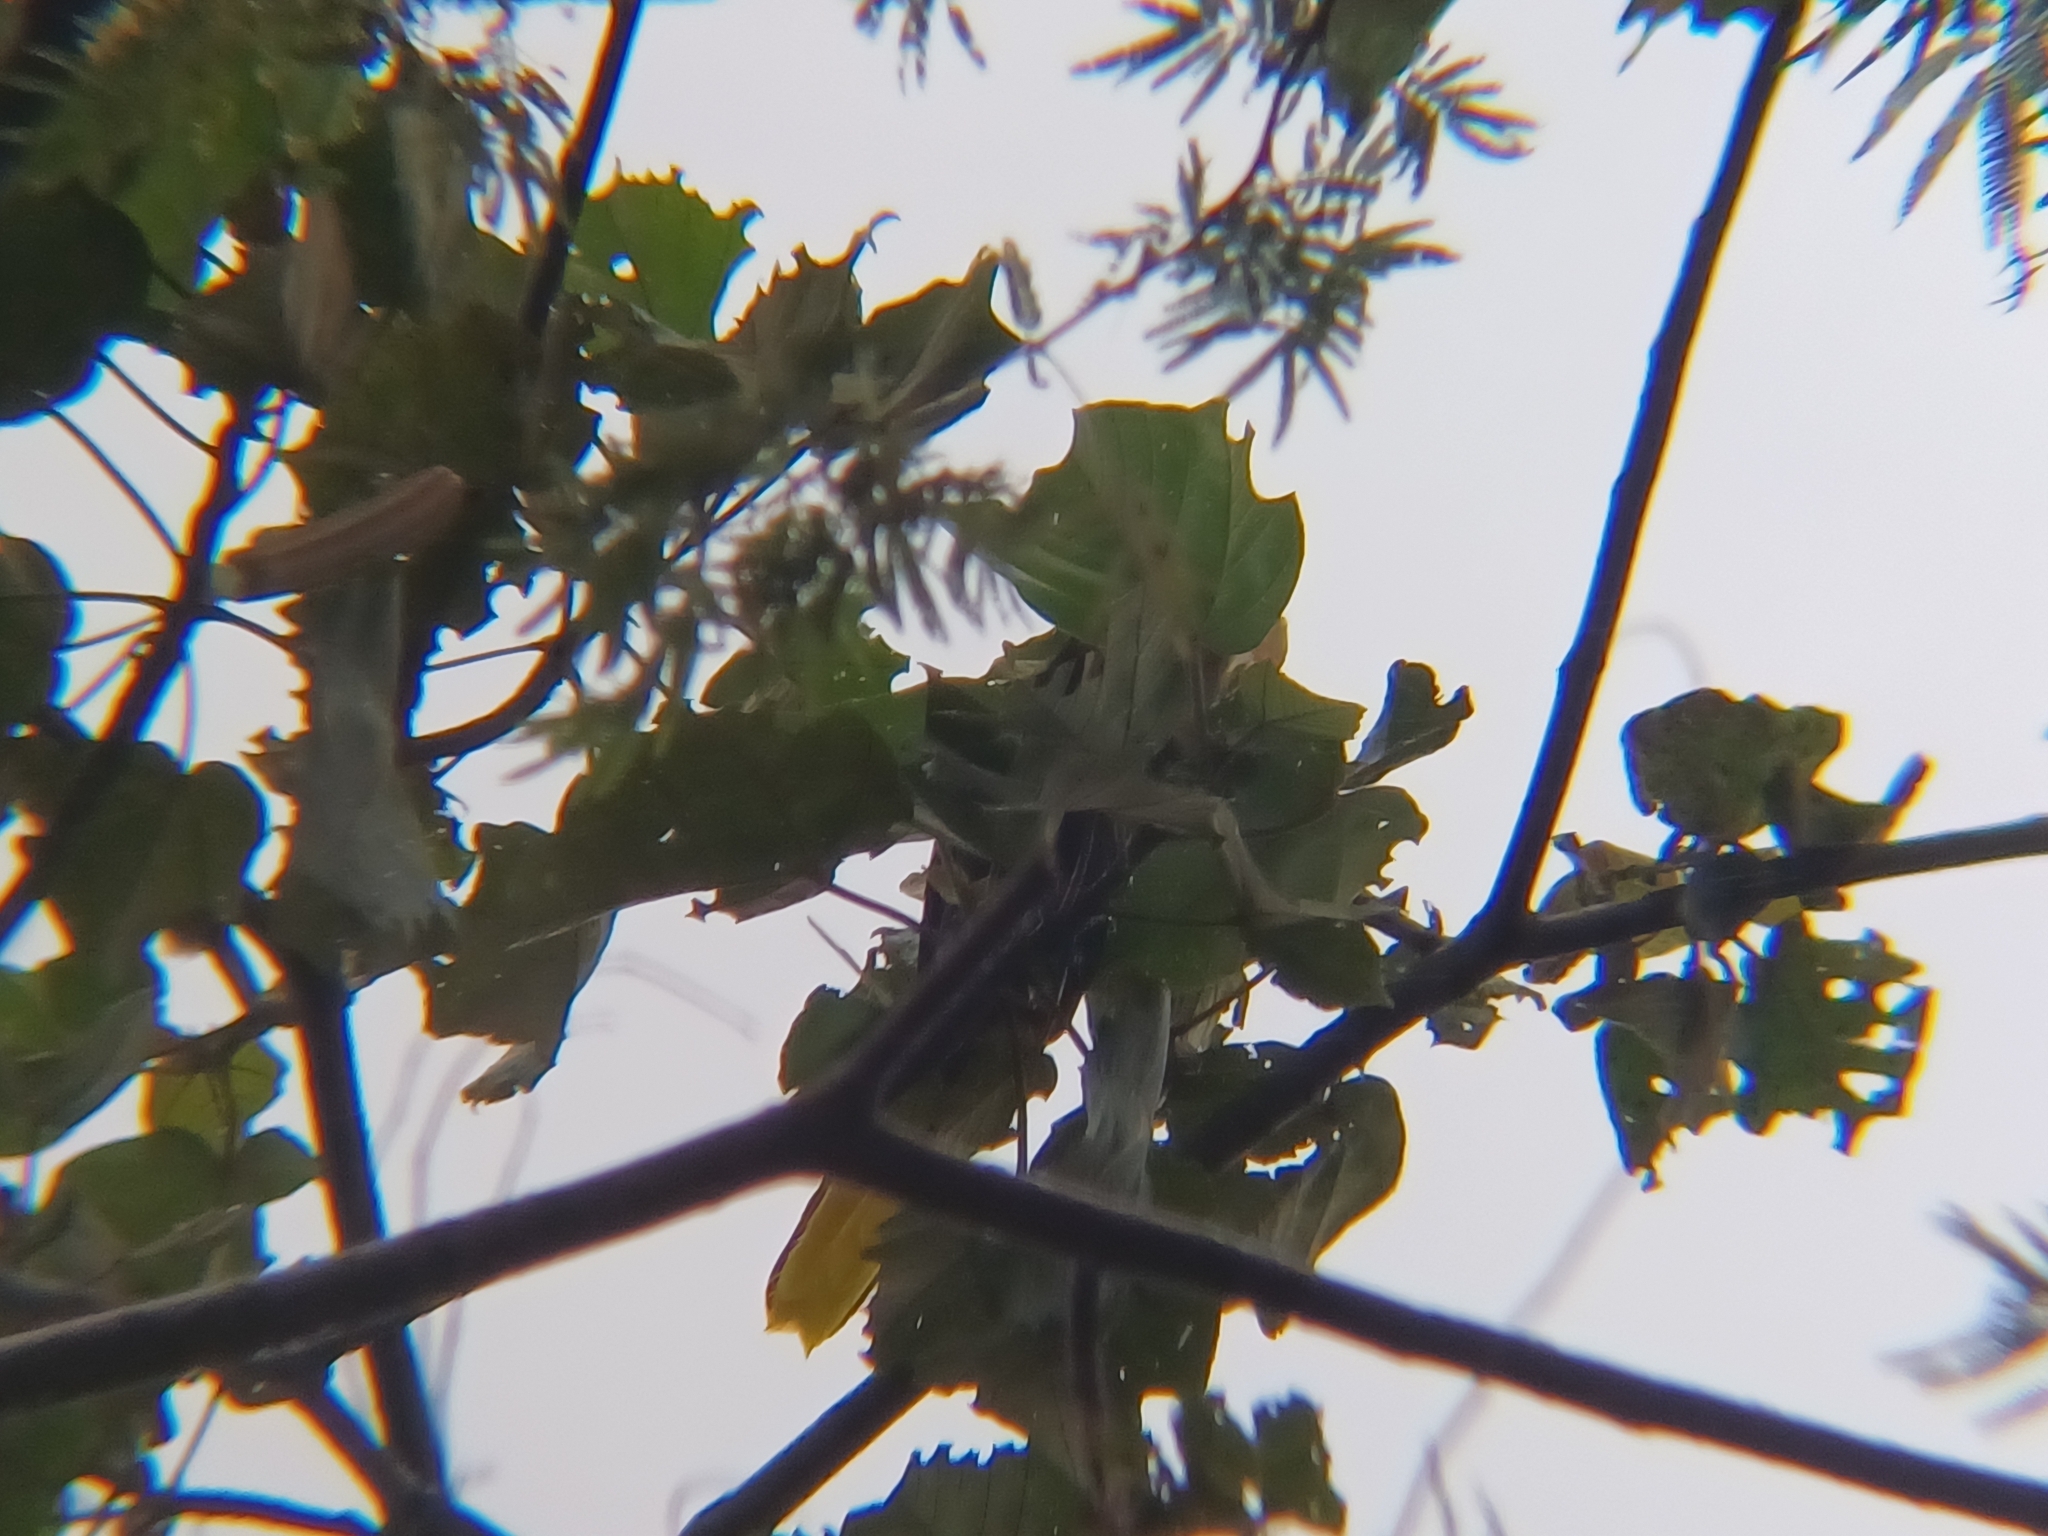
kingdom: Animalia
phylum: Chordata
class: Aves
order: Passeriformes
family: Icteridae
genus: Psarocolius
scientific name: Psarocolius decumanus
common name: Crested oropendola
